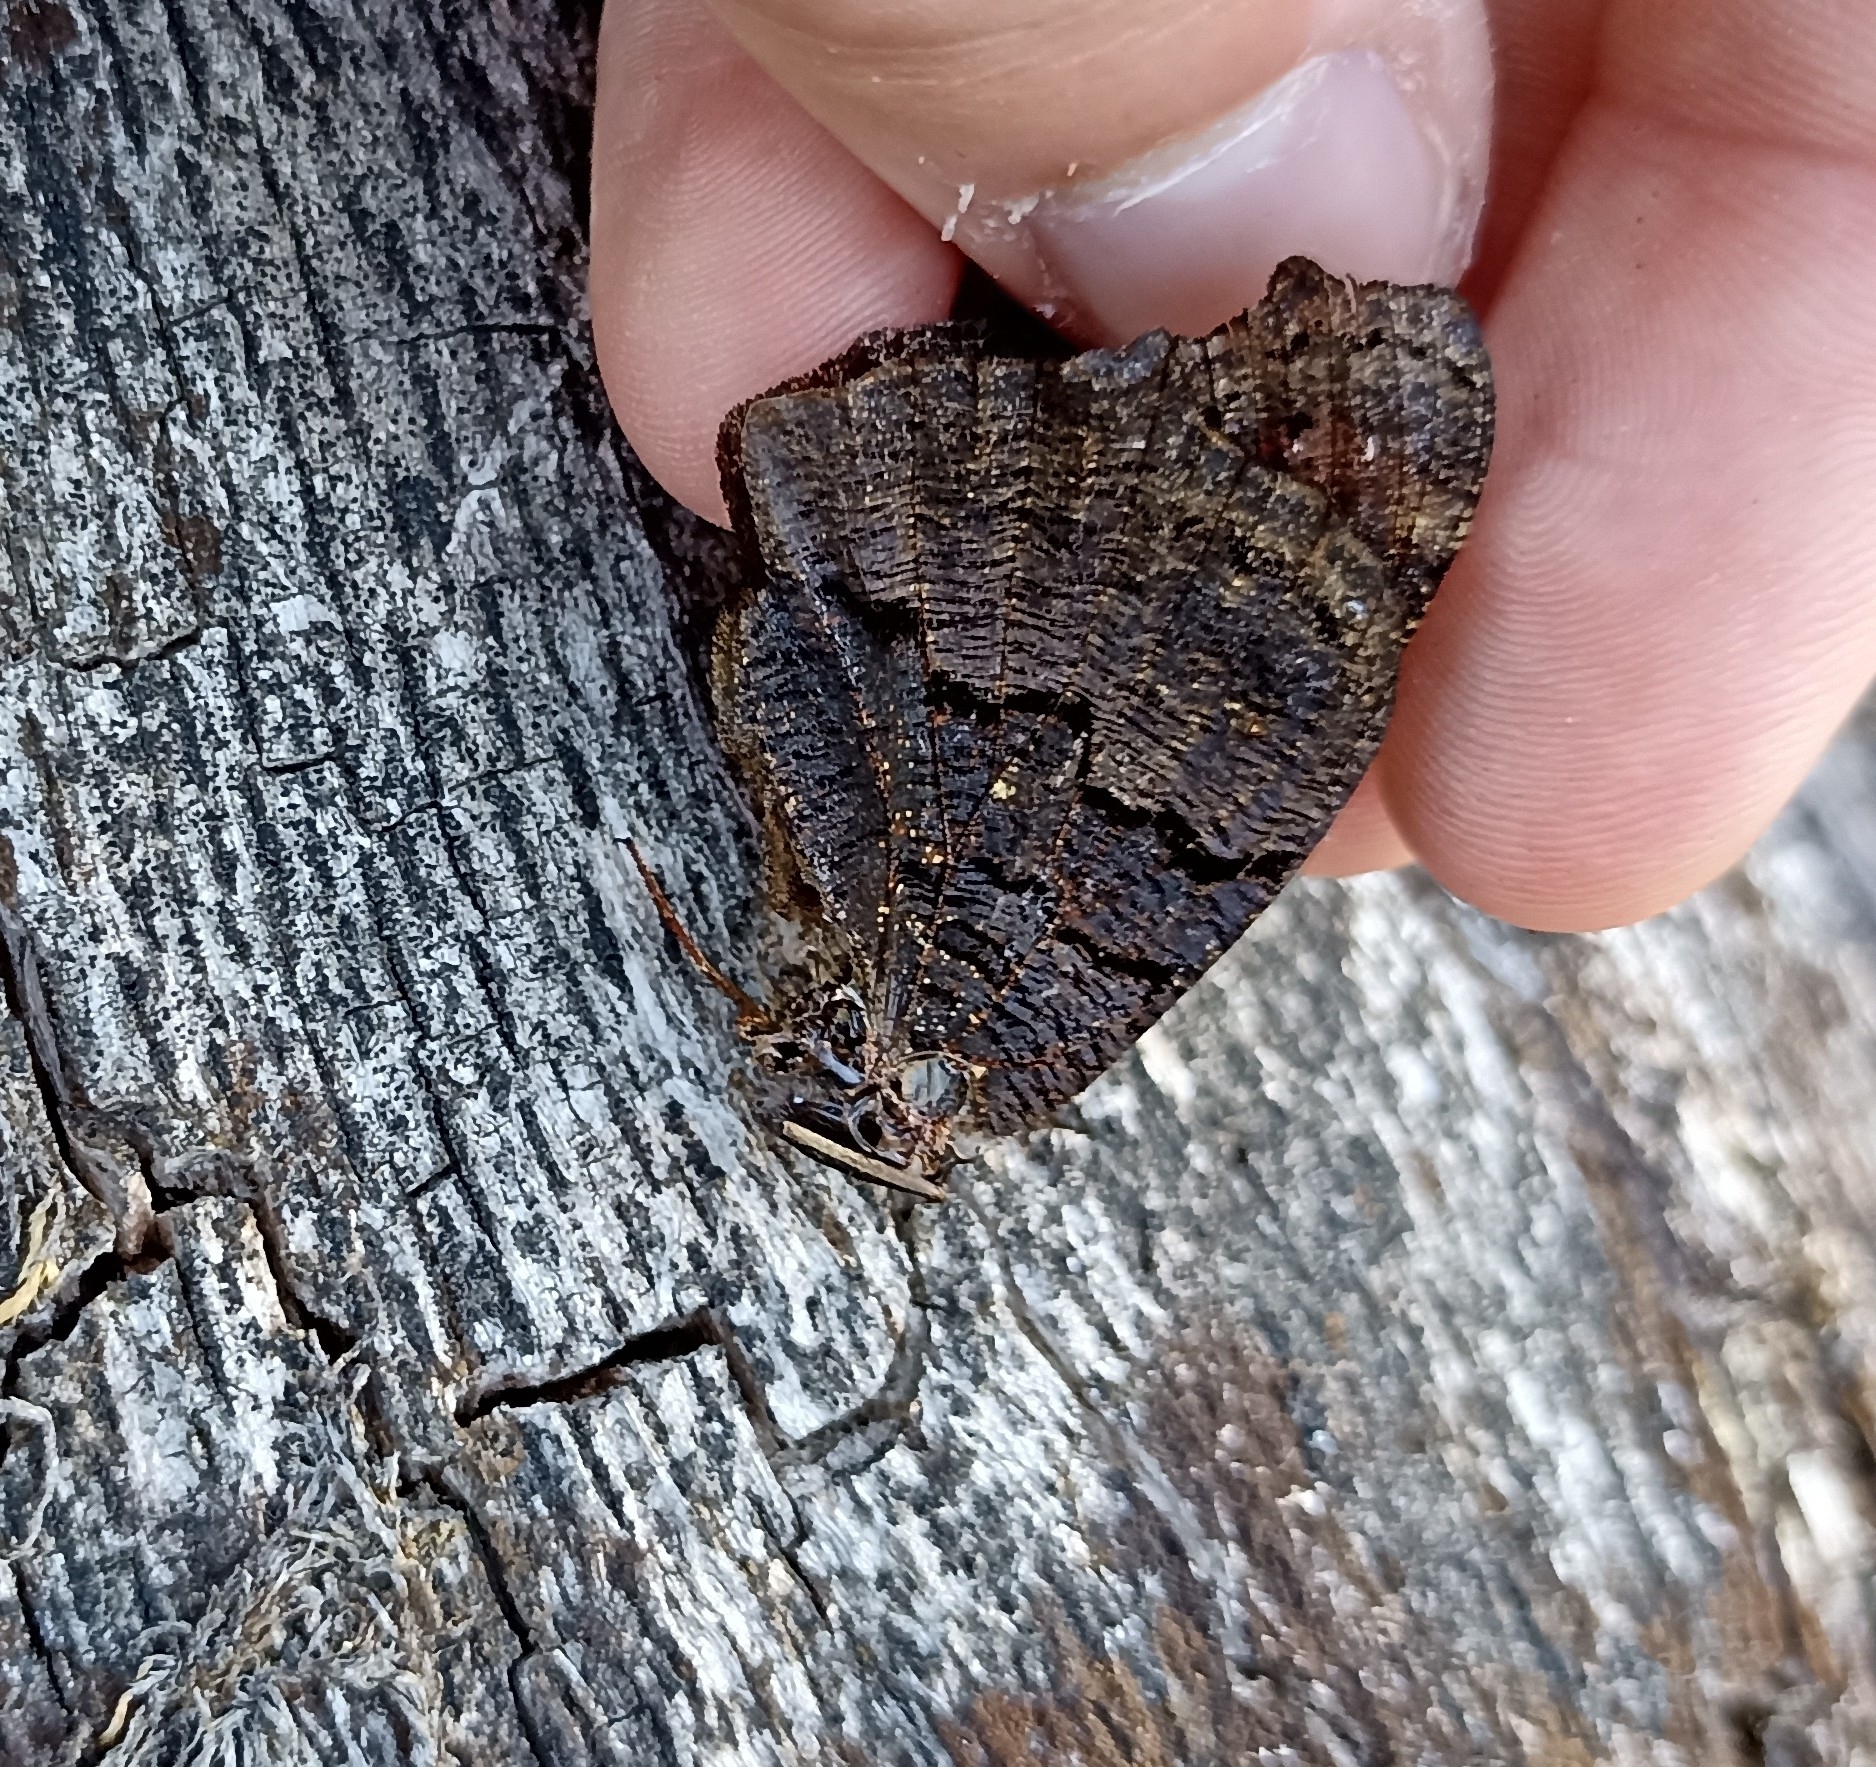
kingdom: Animalia
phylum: Arthropoda
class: Insecta
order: Lepidoptera
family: Nymphalidae
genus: Aglais
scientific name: Aglais io
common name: Peacock
